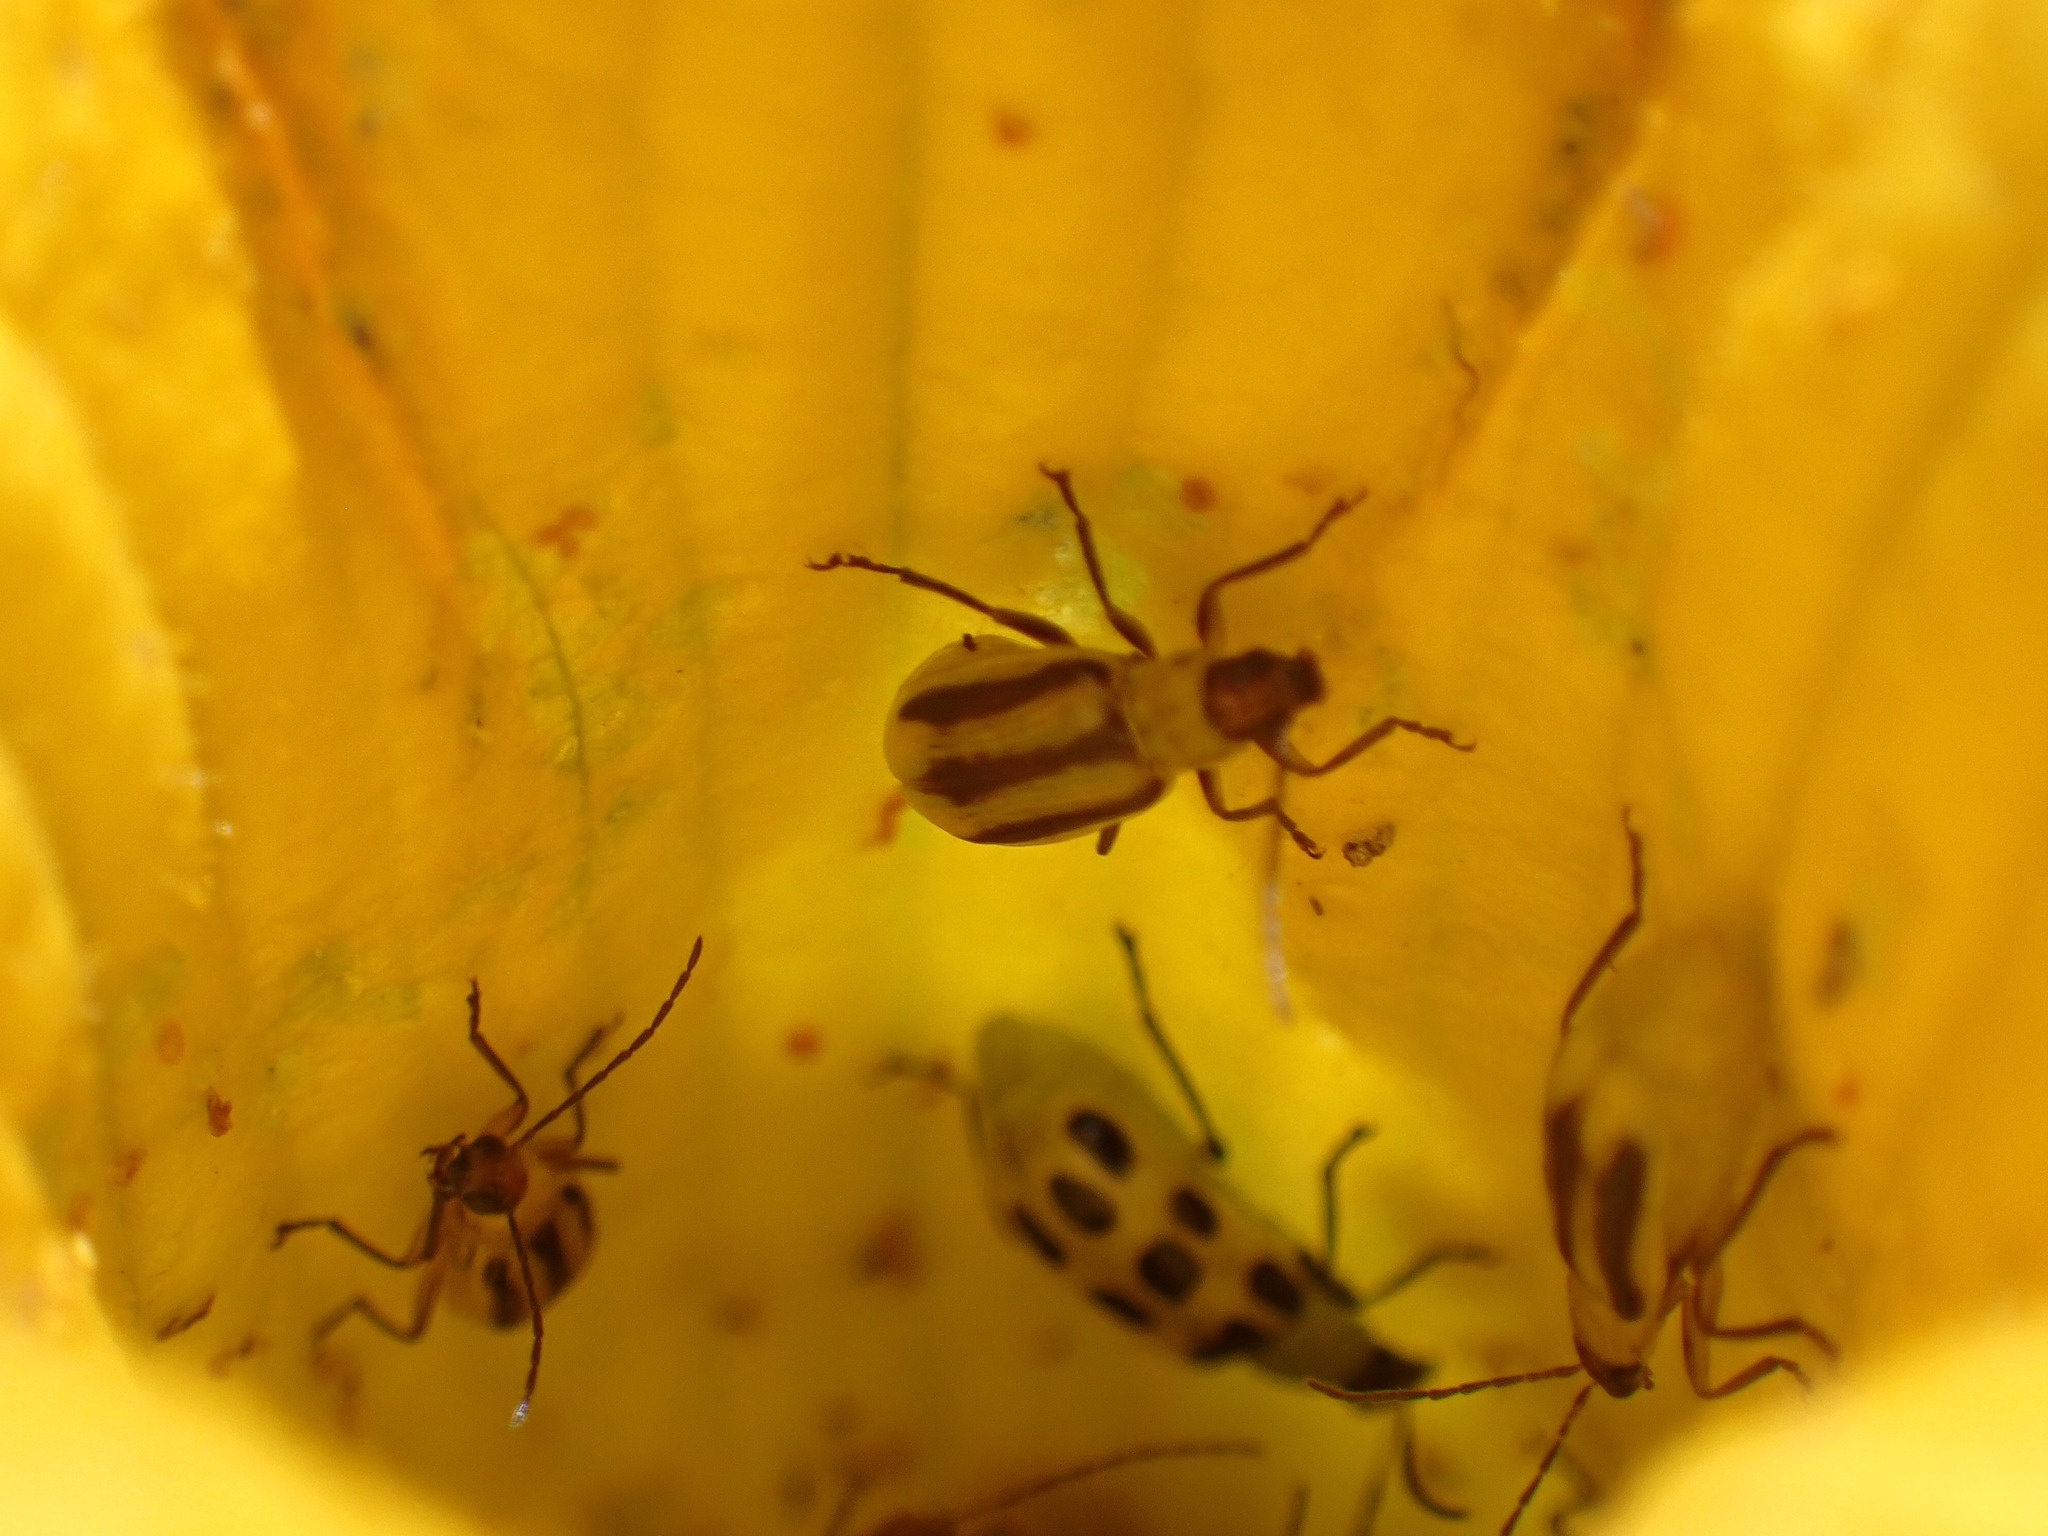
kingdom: Animalia
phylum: Arthropoda
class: Insecta
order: Coleoptera
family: Chrysomelidae
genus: Diabrotica
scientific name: Diabrotica undecimpunctata
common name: Spotted cucumber beetle
